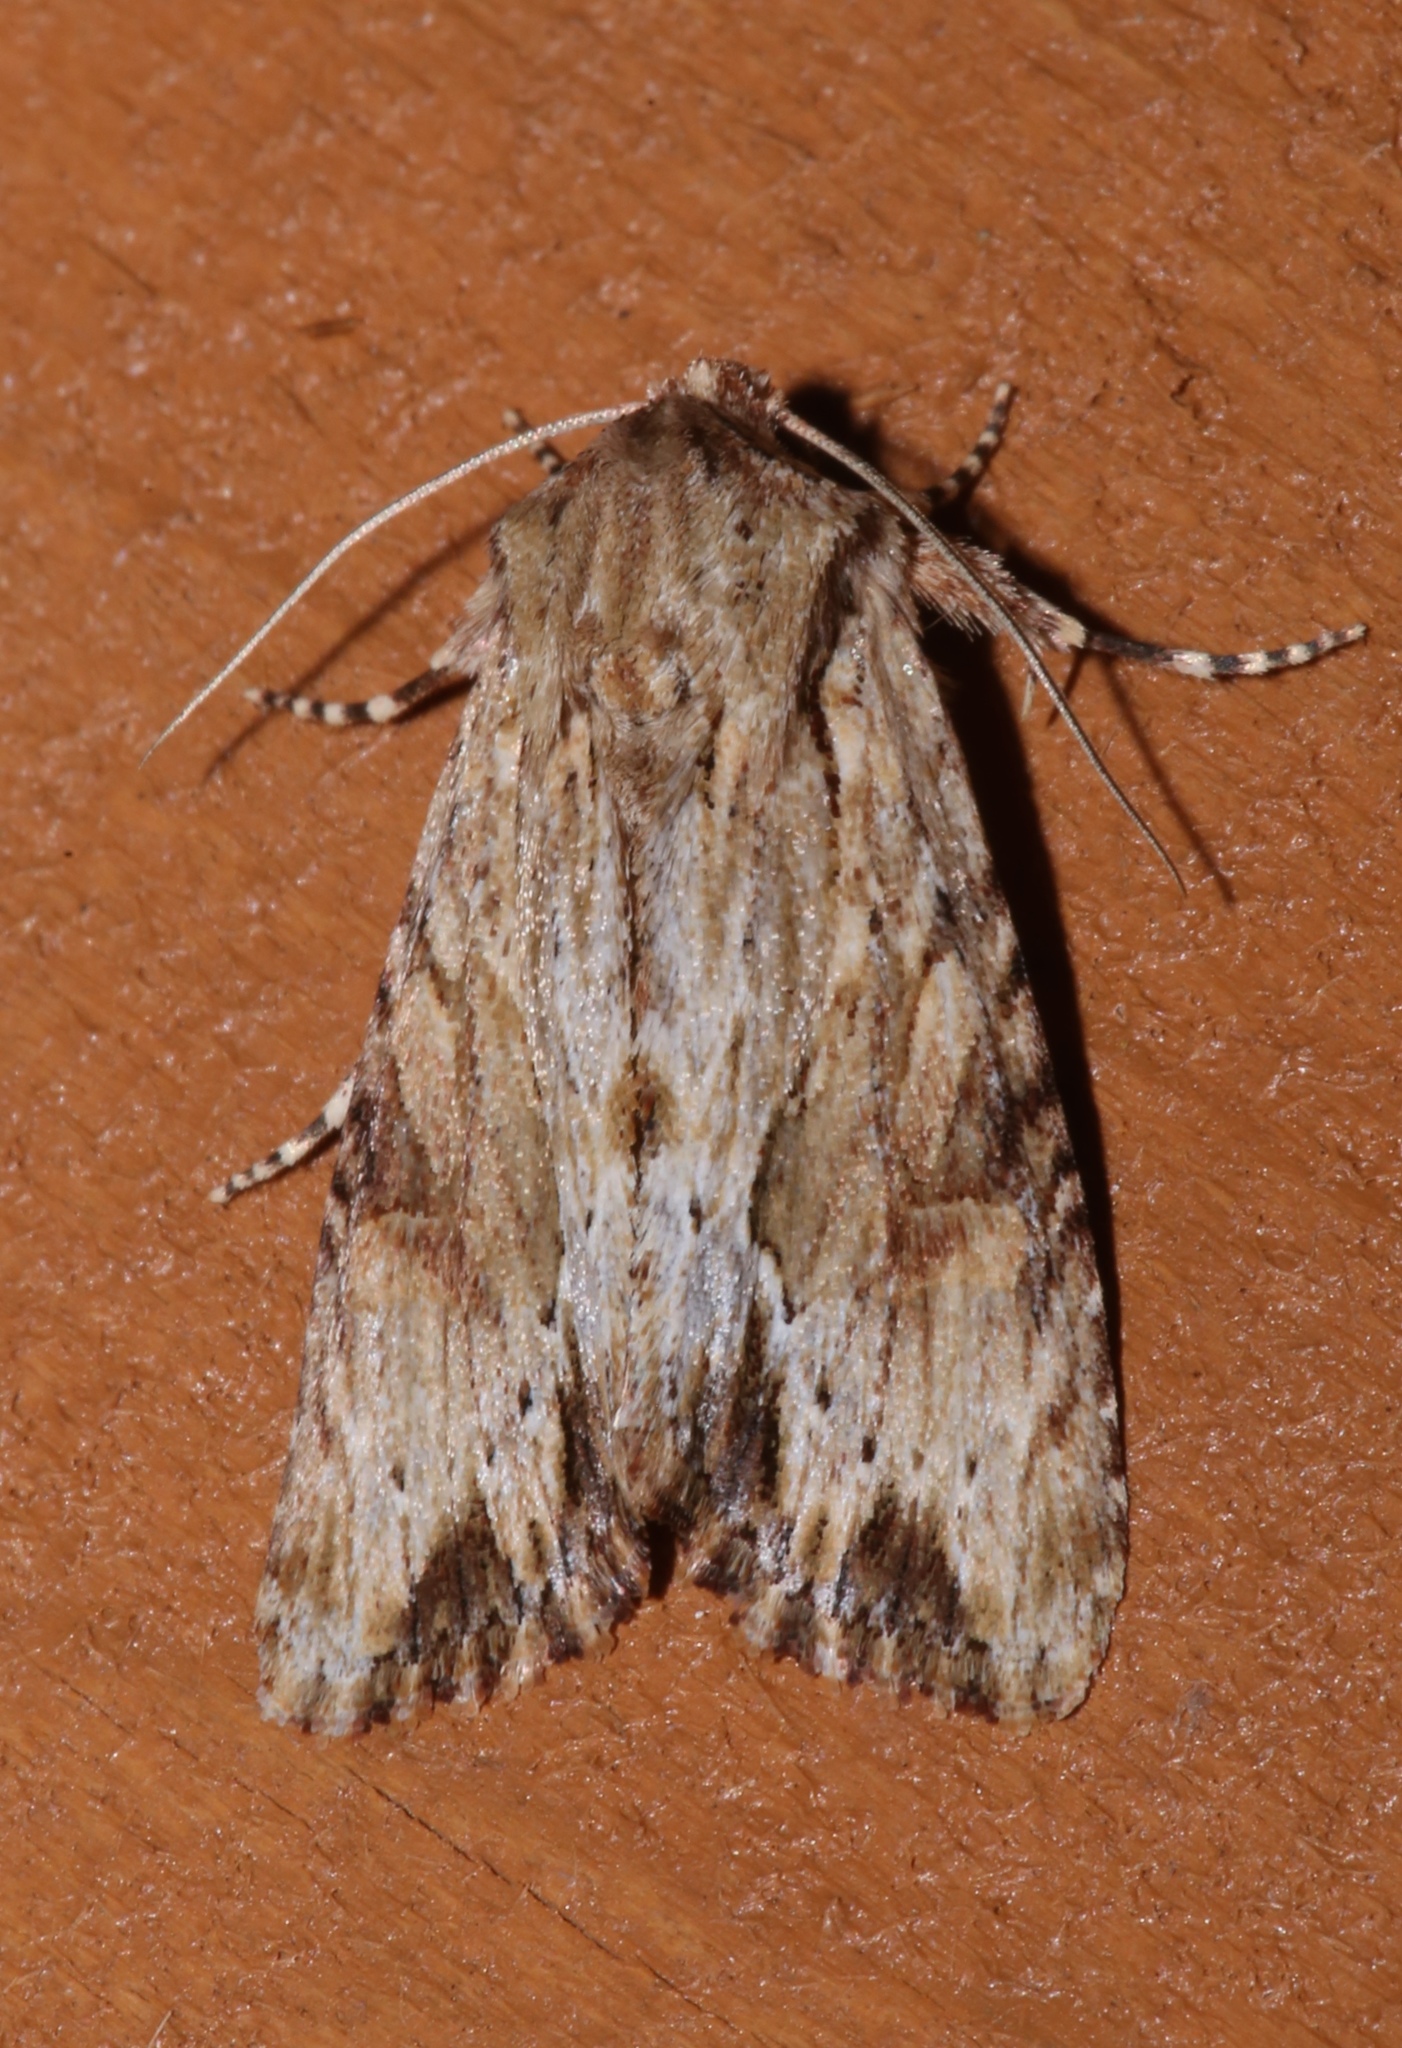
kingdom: Animalia
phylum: Arthropoda
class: Insecta
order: Lepidoptera
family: Noctuidae
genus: Achatia
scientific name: Achatia mucens
